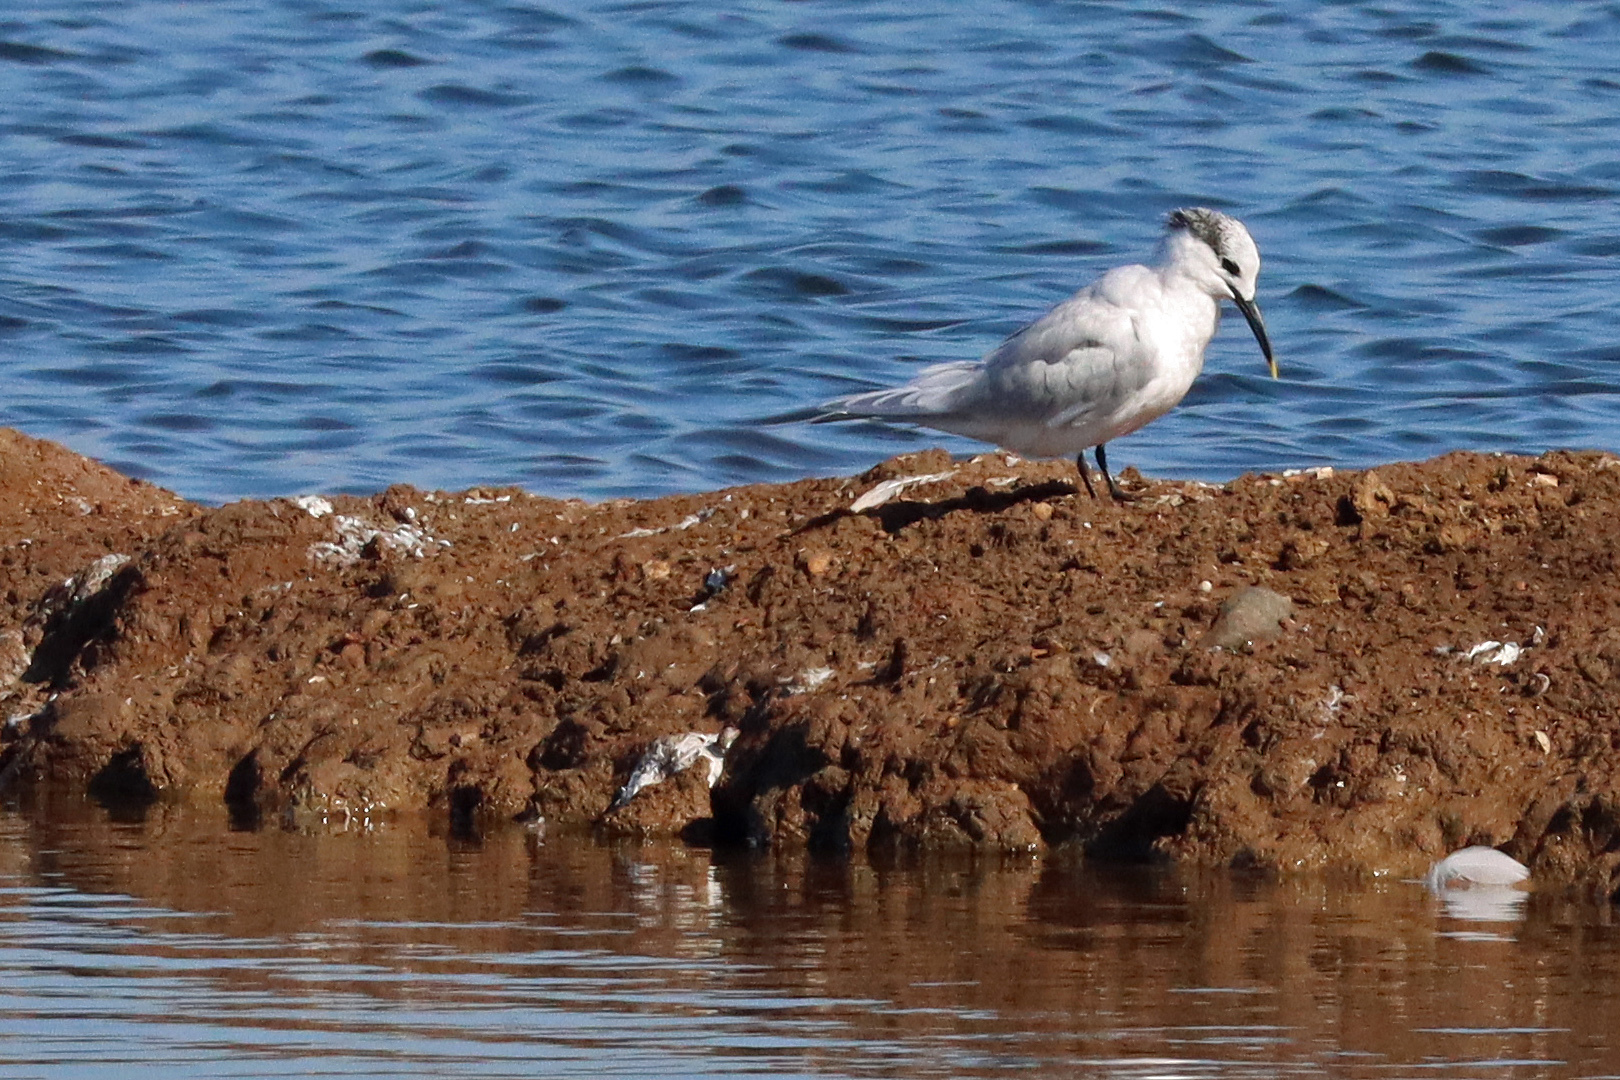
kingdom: Animalia
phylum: Chordata
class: Aves
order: Charadriiformes
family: Laridae
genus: Thalasseus
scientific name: Thalasseus sandvicensis
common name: Sandwich tern
